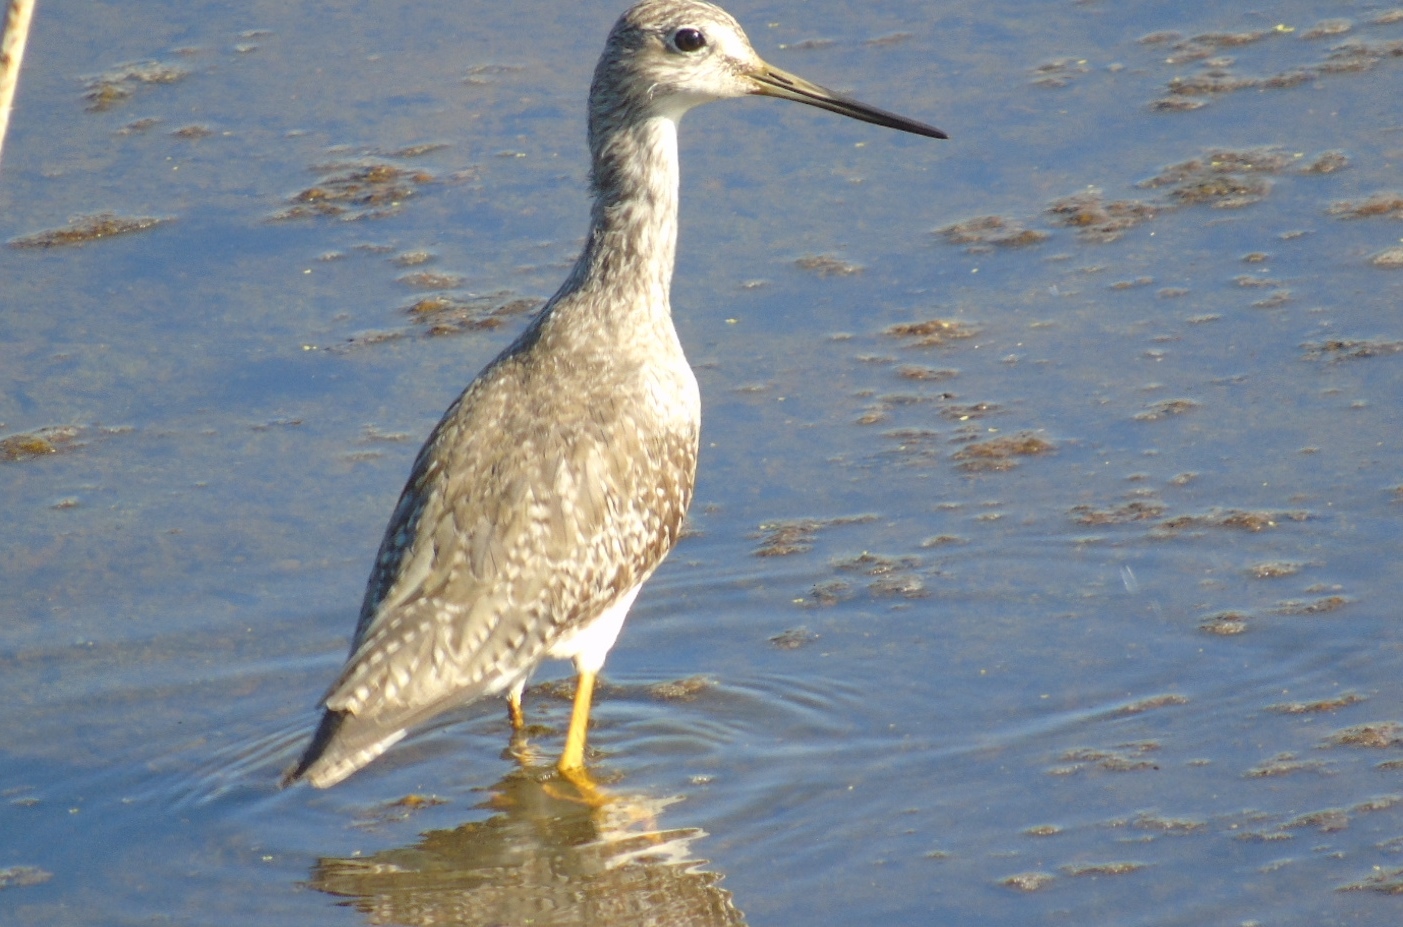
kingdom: Animalia
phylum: Chordata
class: Aves
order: Charadriiformes
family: Scolopacidae
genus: Tringa
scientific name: Tringa melanoleuca
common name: Greater yellowlegs
